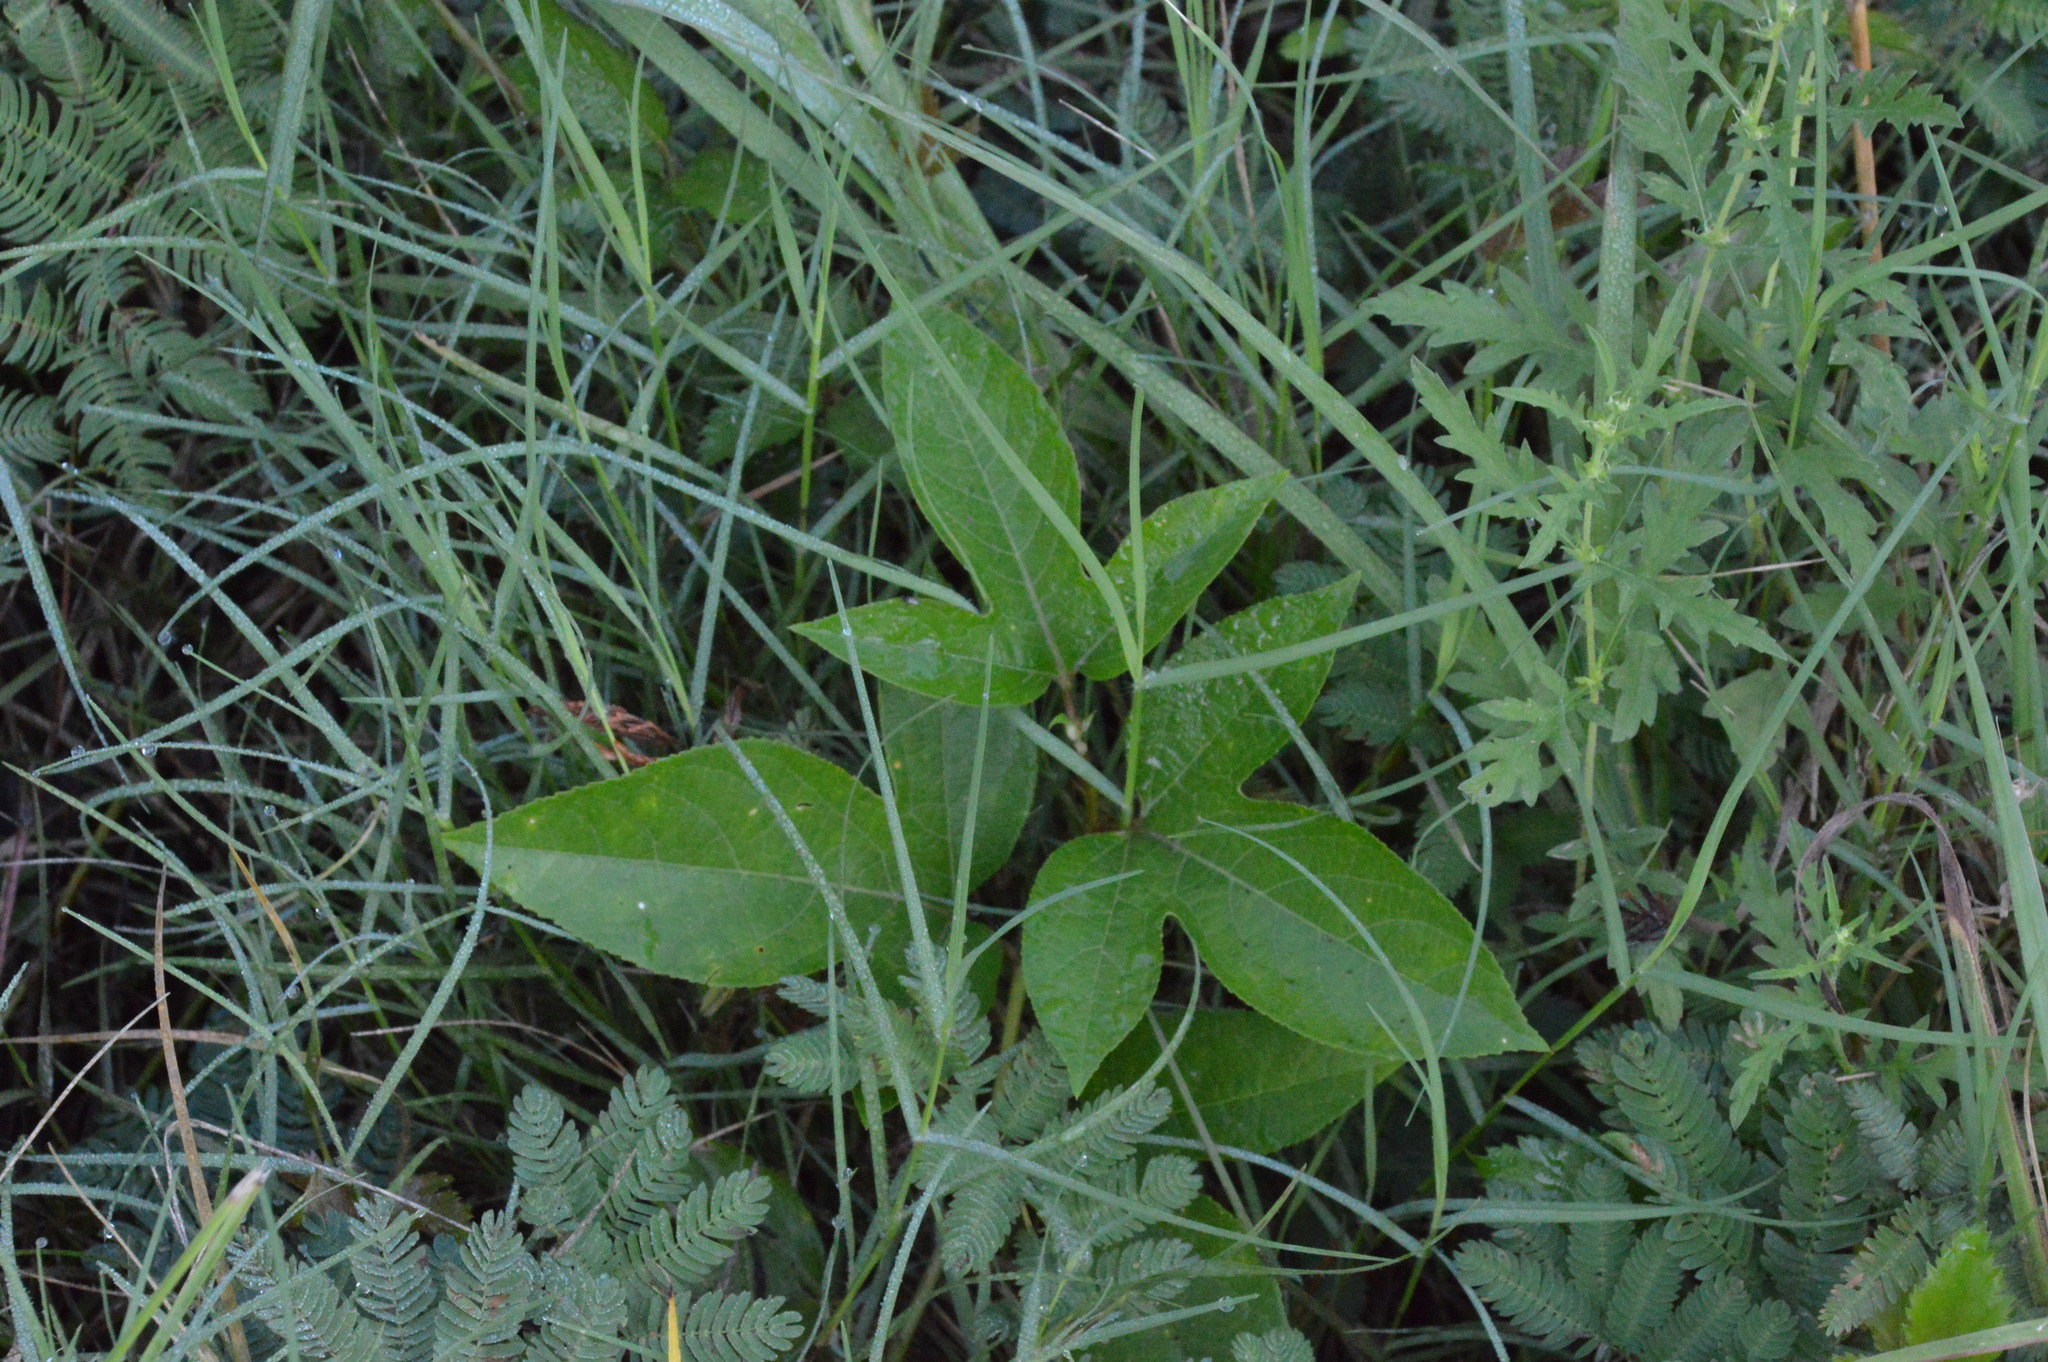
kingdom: Plantae
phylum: Tracheophyta
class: Magnoliopsida
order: Malpighiales
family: Passifloraceae
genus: Passiflora
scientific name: Passiflora incarnata
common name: Apricot-vine
